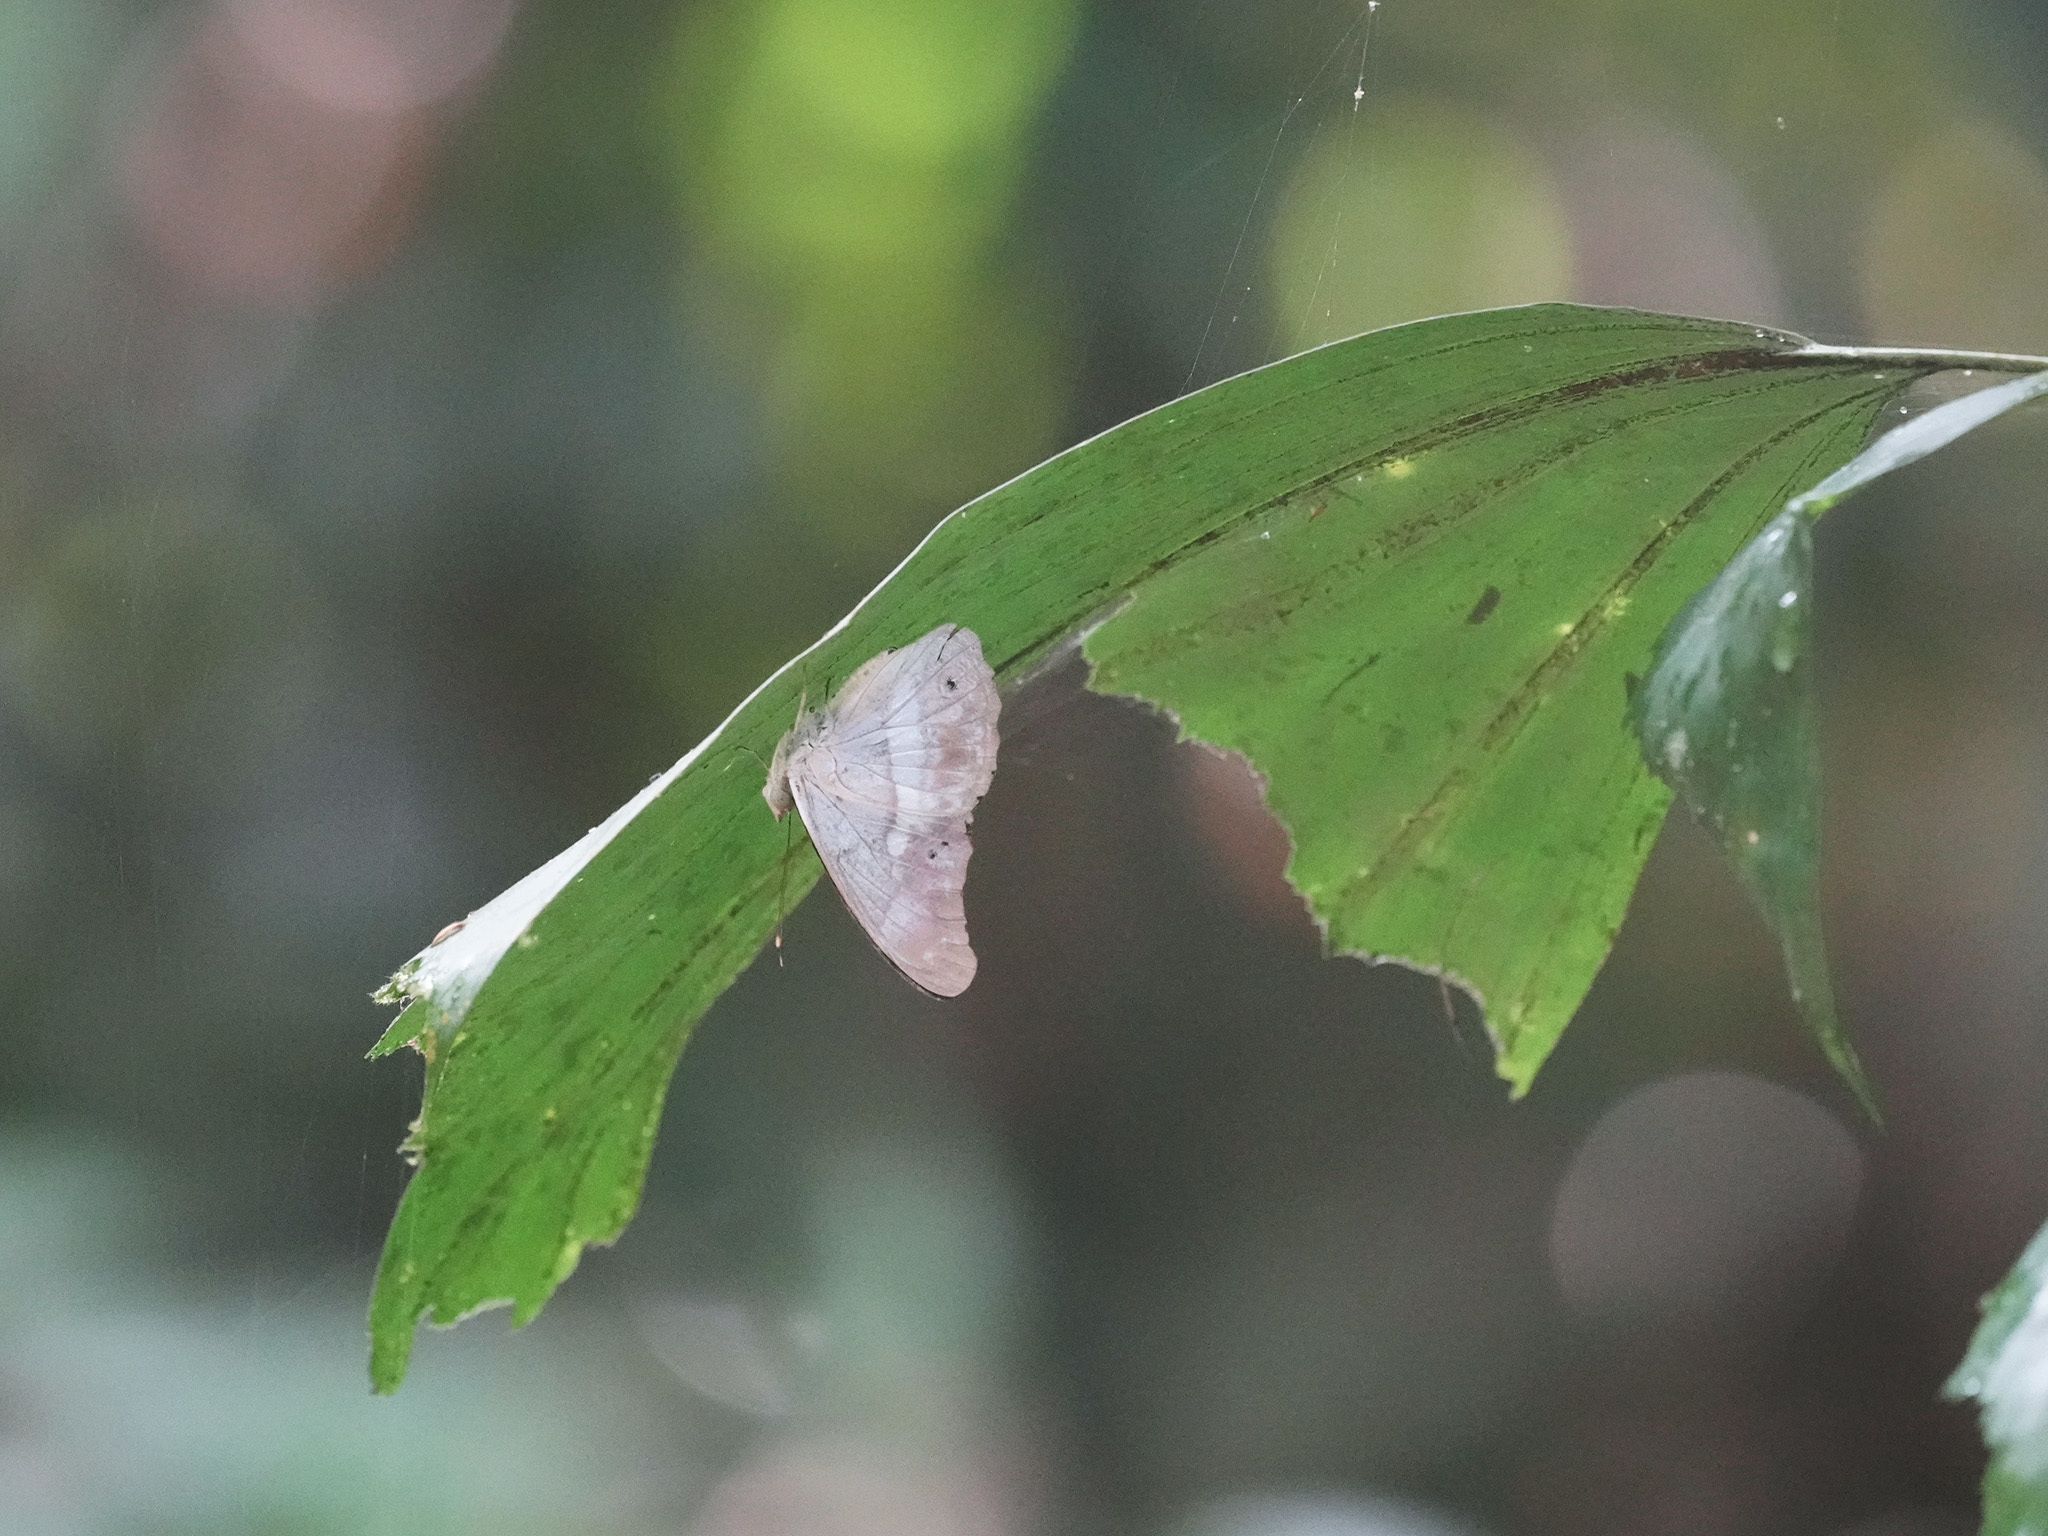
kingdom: Animalia
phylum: Arthropoda
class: Insecta
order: Lepidoptera
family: Nymphalidae
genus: Eulaceura
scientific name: Eulaceura osteria
